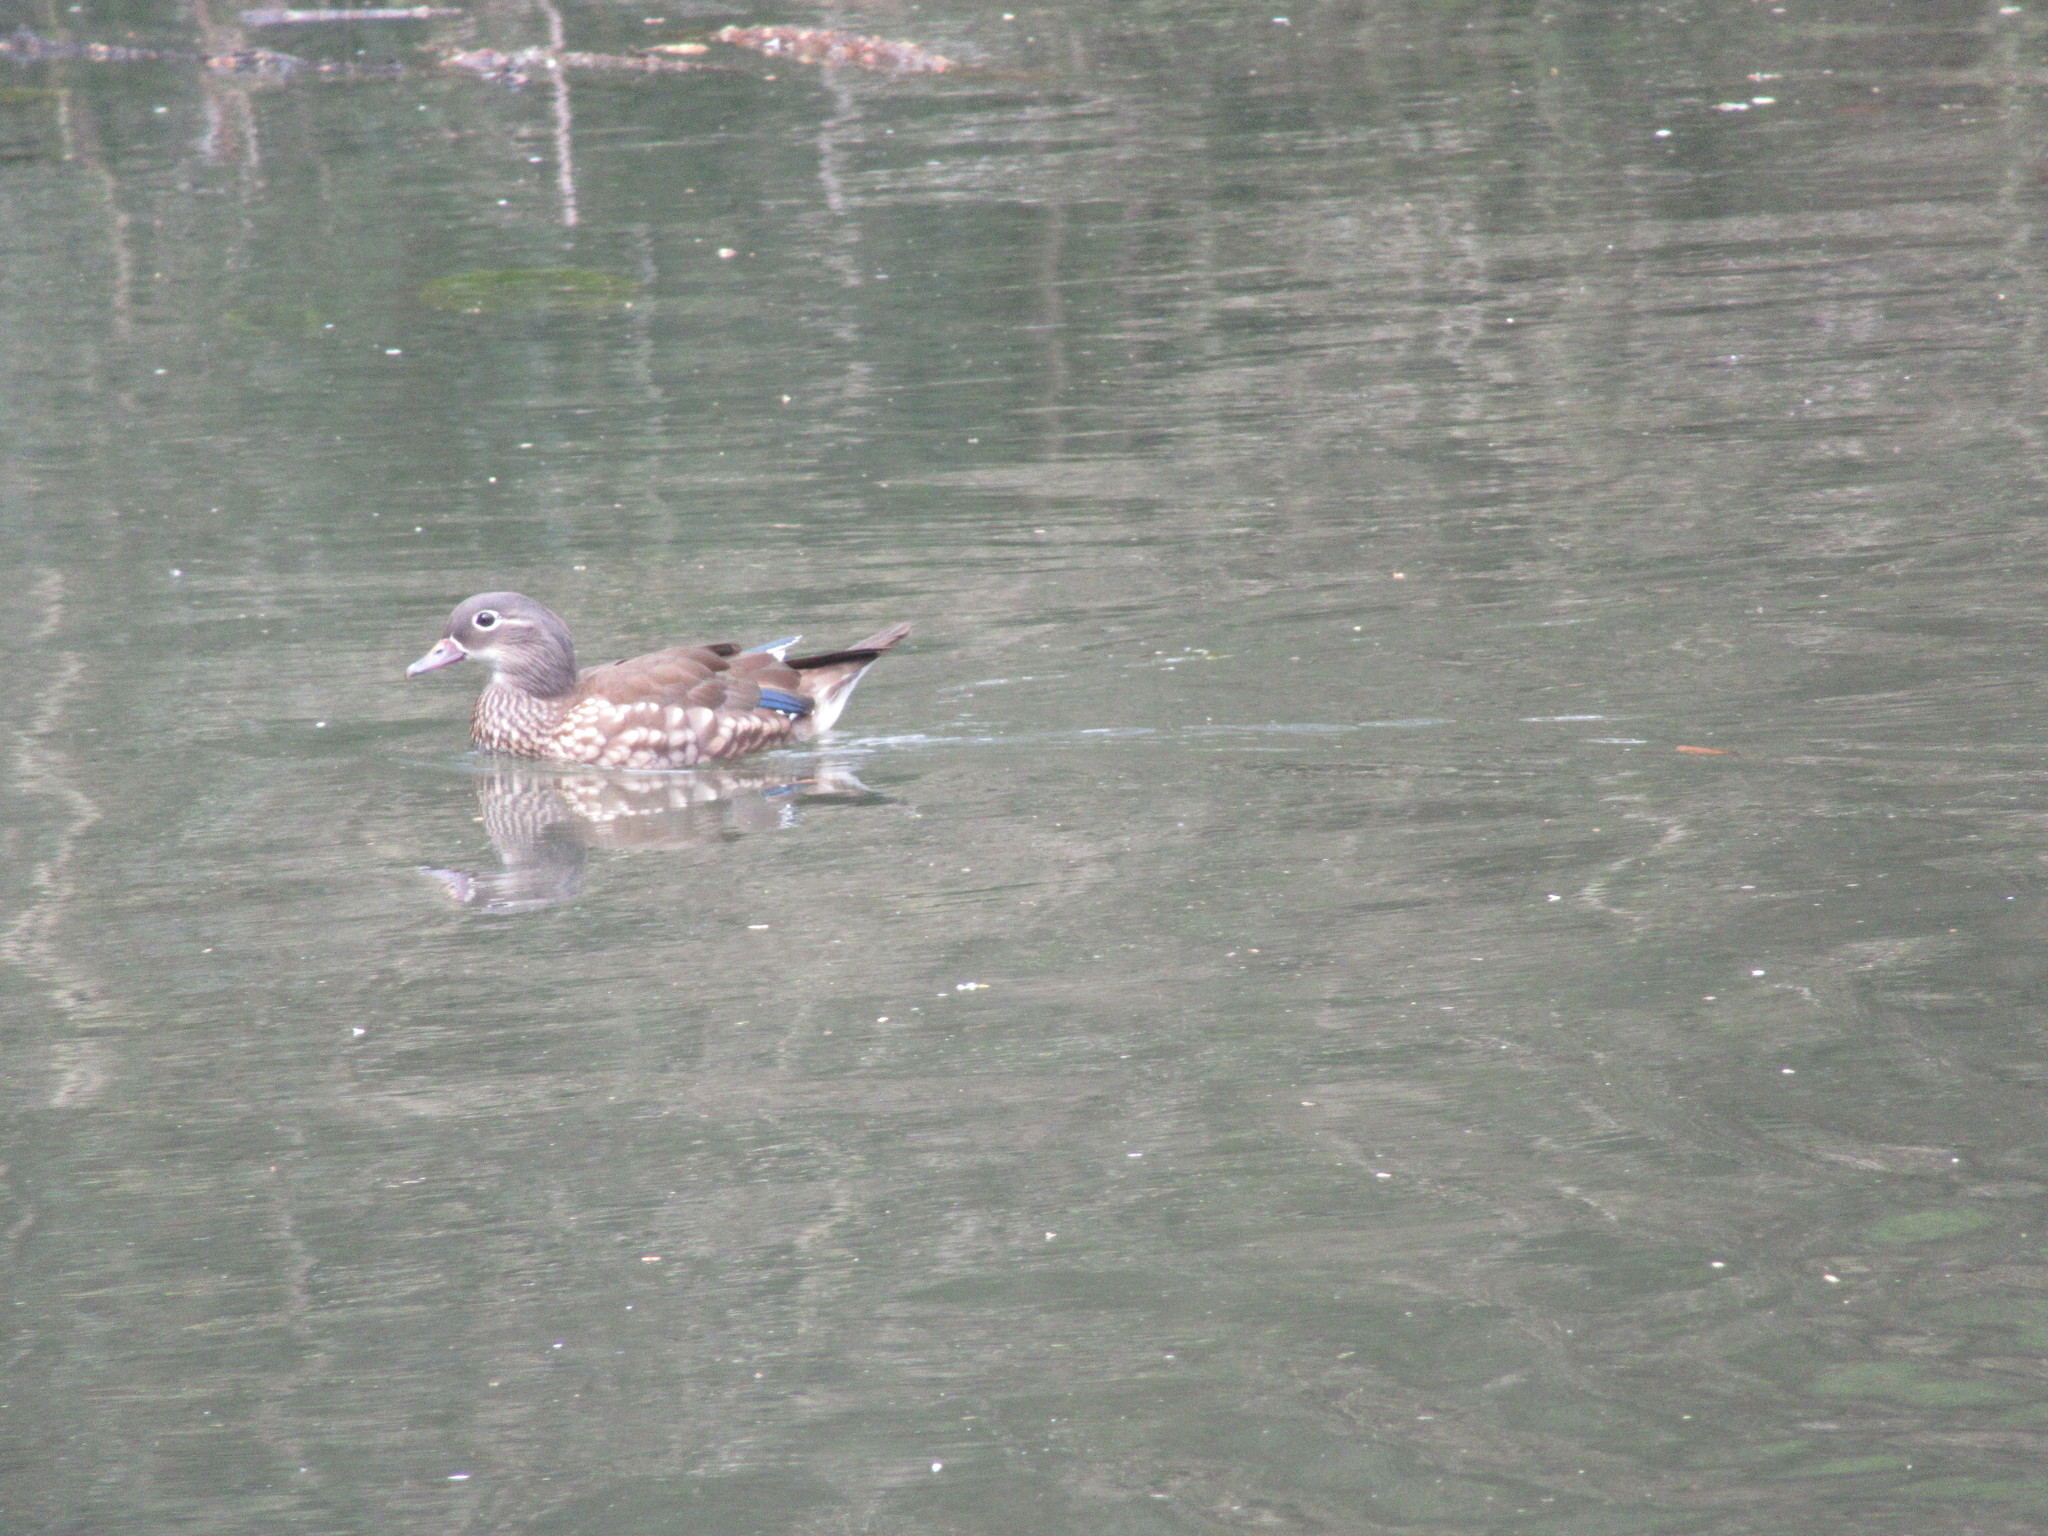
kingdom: Animalia
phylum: Chordata
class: Aves
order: Anseriformes
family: Anatidae
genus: Aix
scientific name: Aix galericulata
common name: Mandarin duck
